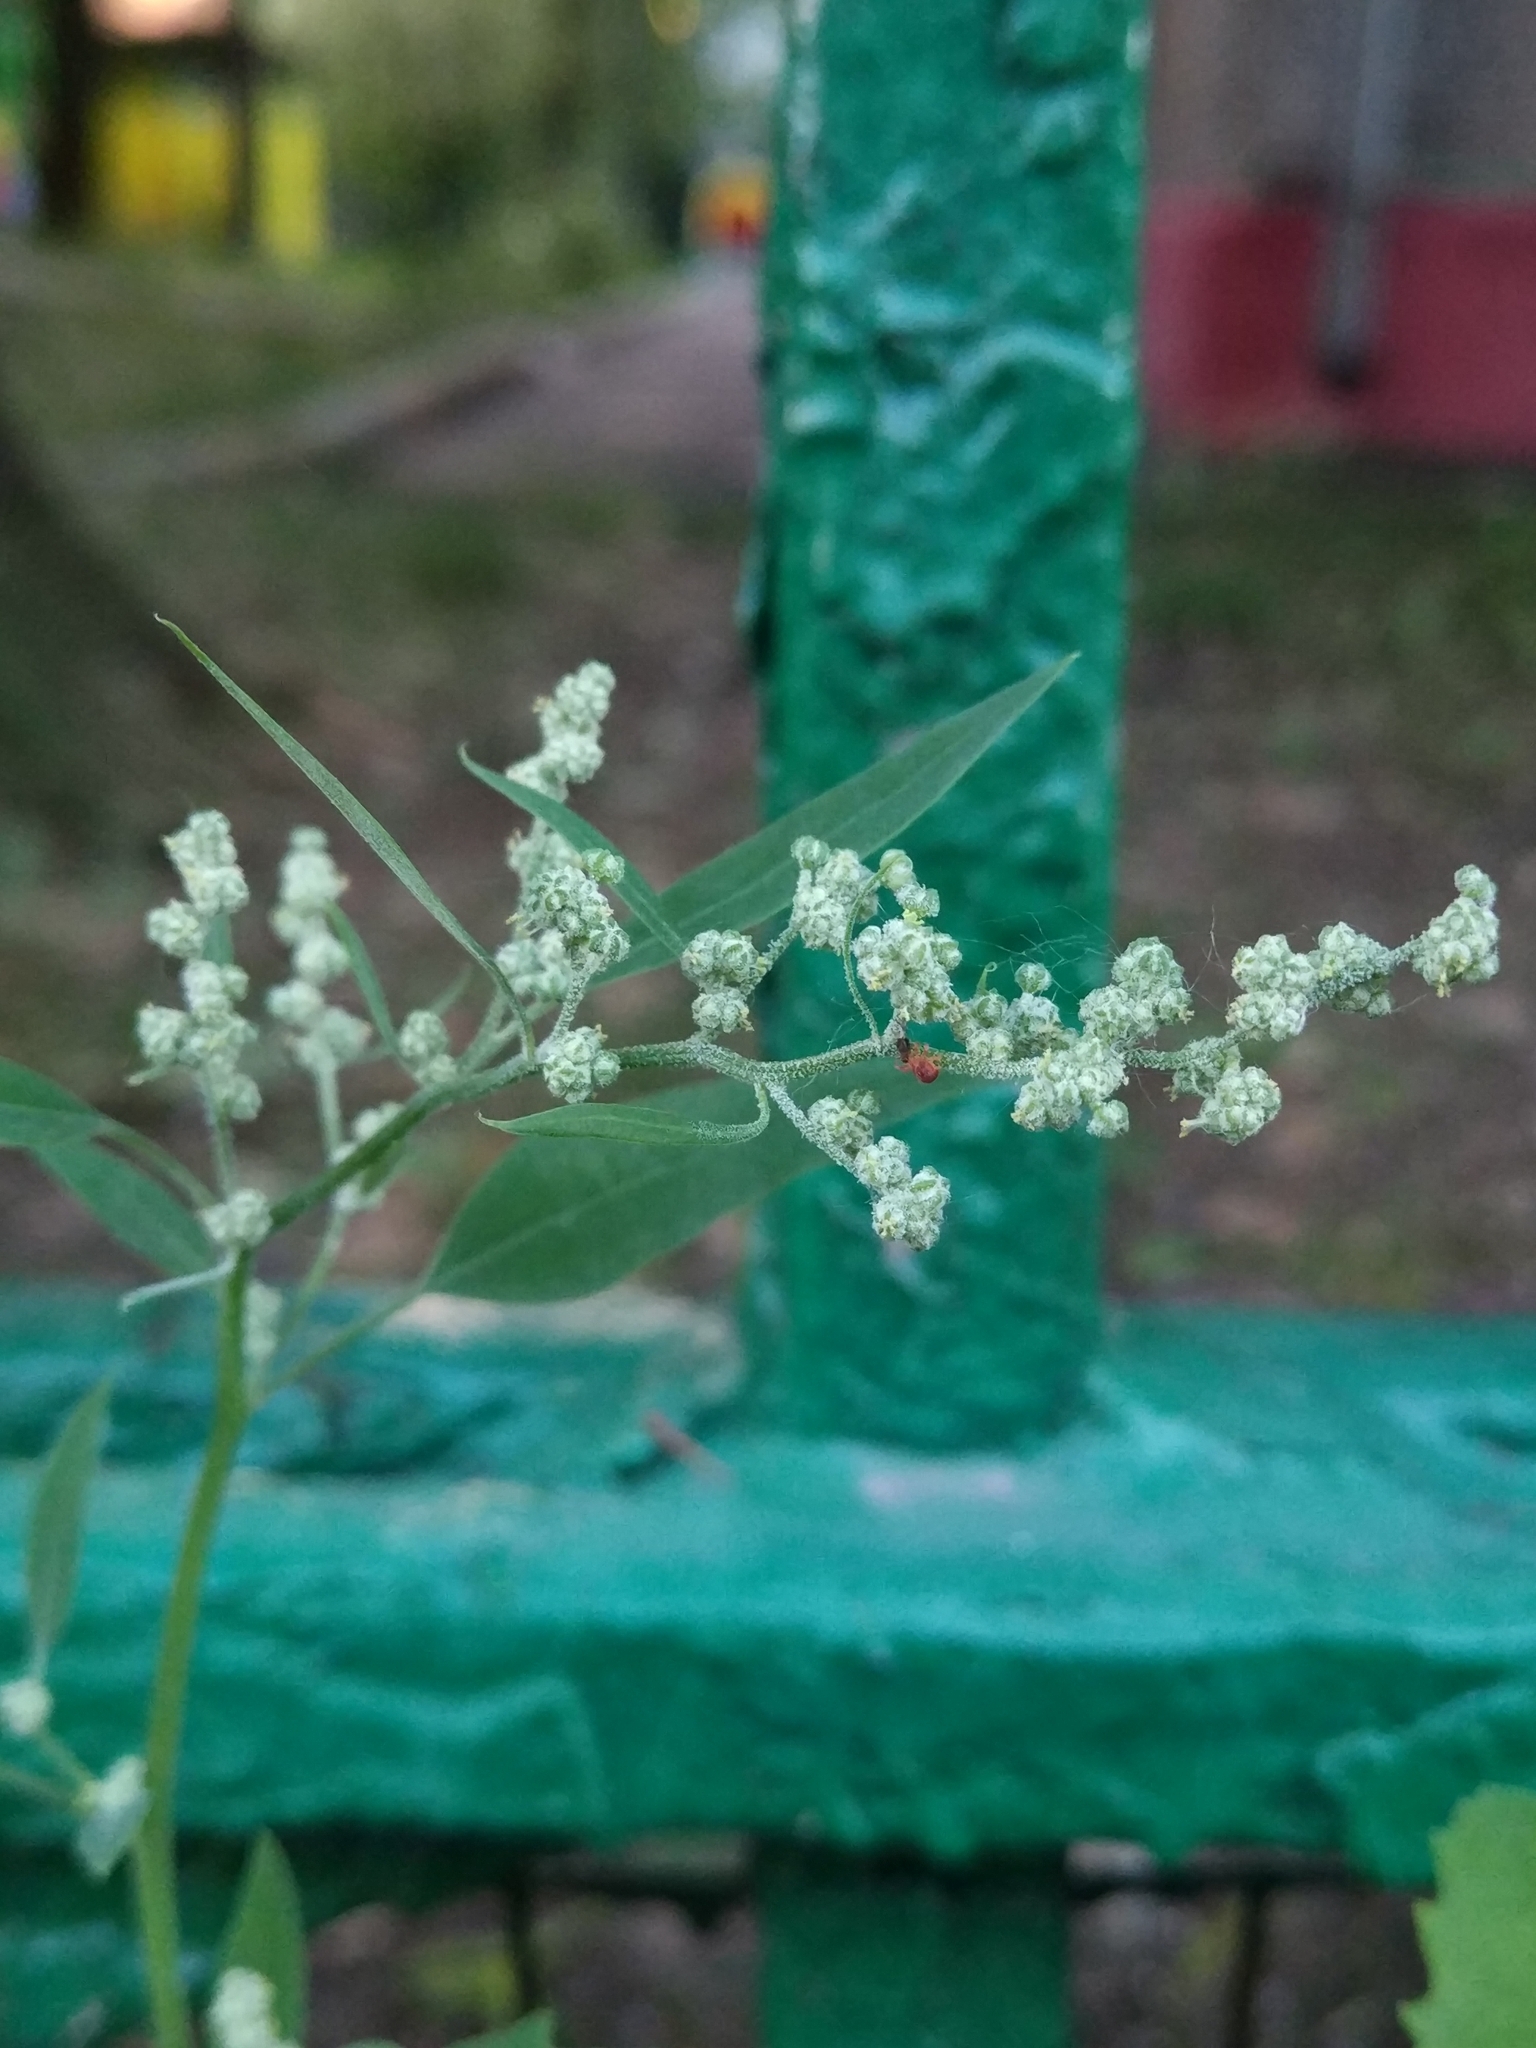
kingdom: Plantae
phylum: Tracheophyta
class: Magnoliopsida
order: Caryophyllales
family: Amaranthaceae
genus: Chenopodium
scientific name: Chenopodium album
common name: Fat-hen
